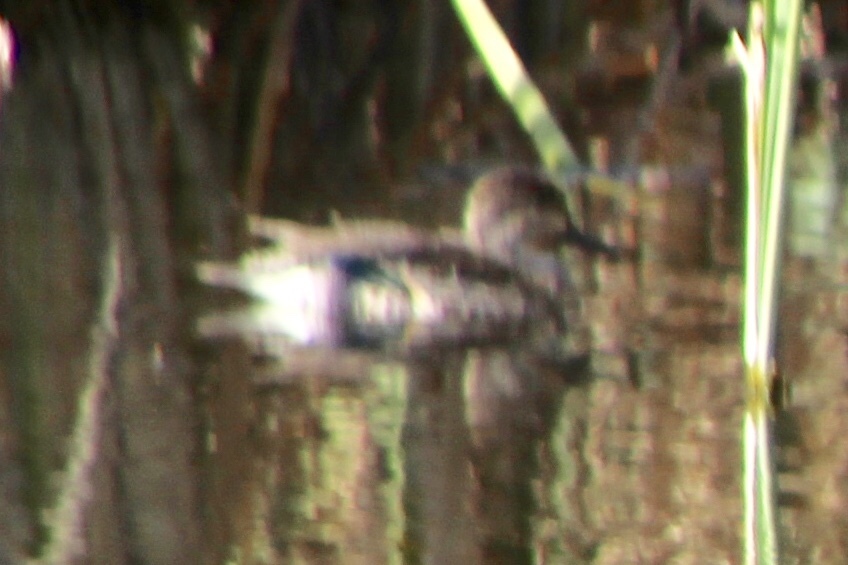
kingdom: Animalia
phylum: Chordata
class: Aves
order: Anseriformes
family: Anatidae
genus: Anas
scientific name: Anas crecca
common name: Eurasian teal
